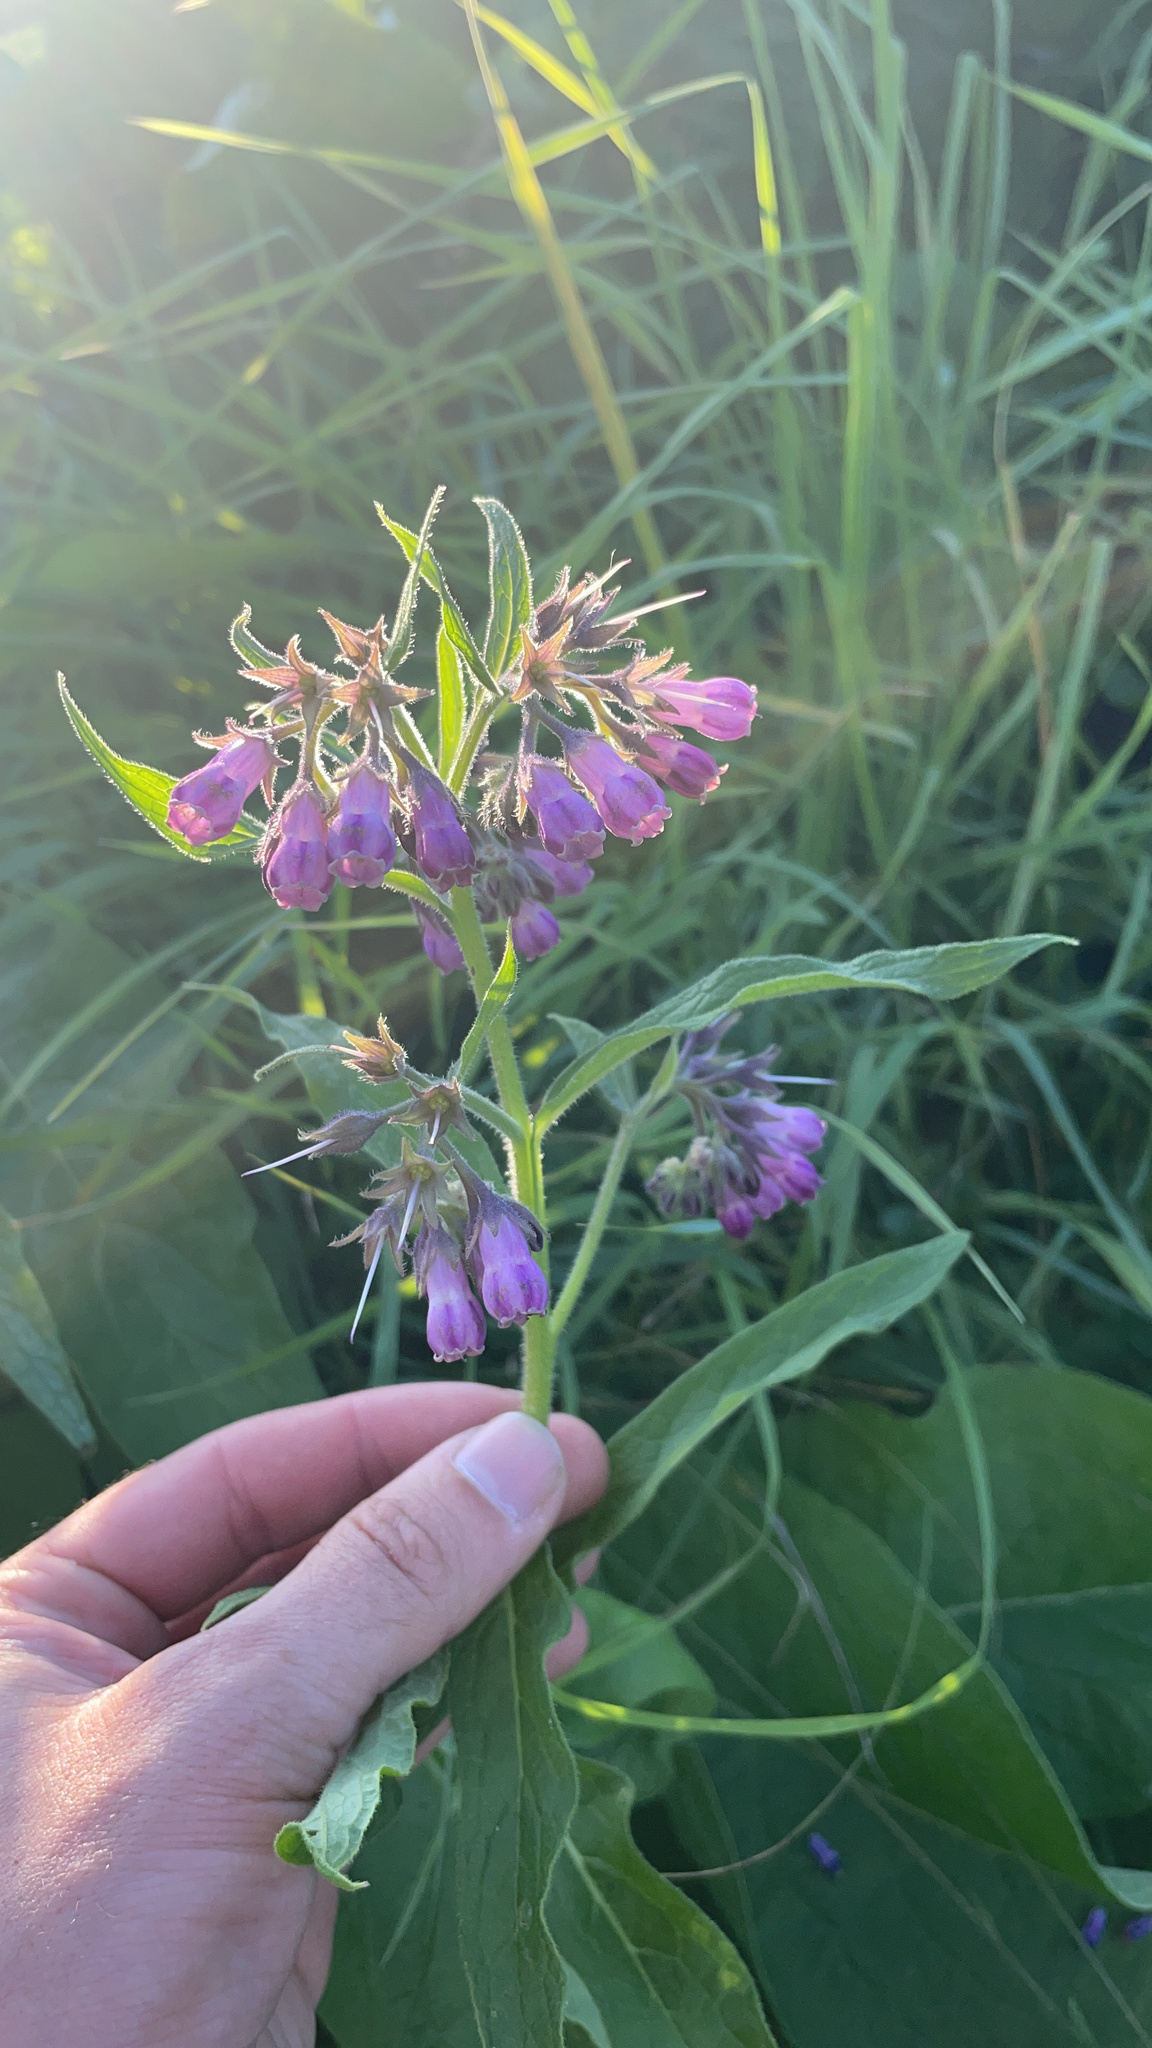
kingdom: Plantae
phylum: Tracheophyta
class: Magnoliopsida
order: Boraginales
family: Boraginaceae
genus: Symphytum
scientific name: Symphytum officinale
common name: Common comfrey
